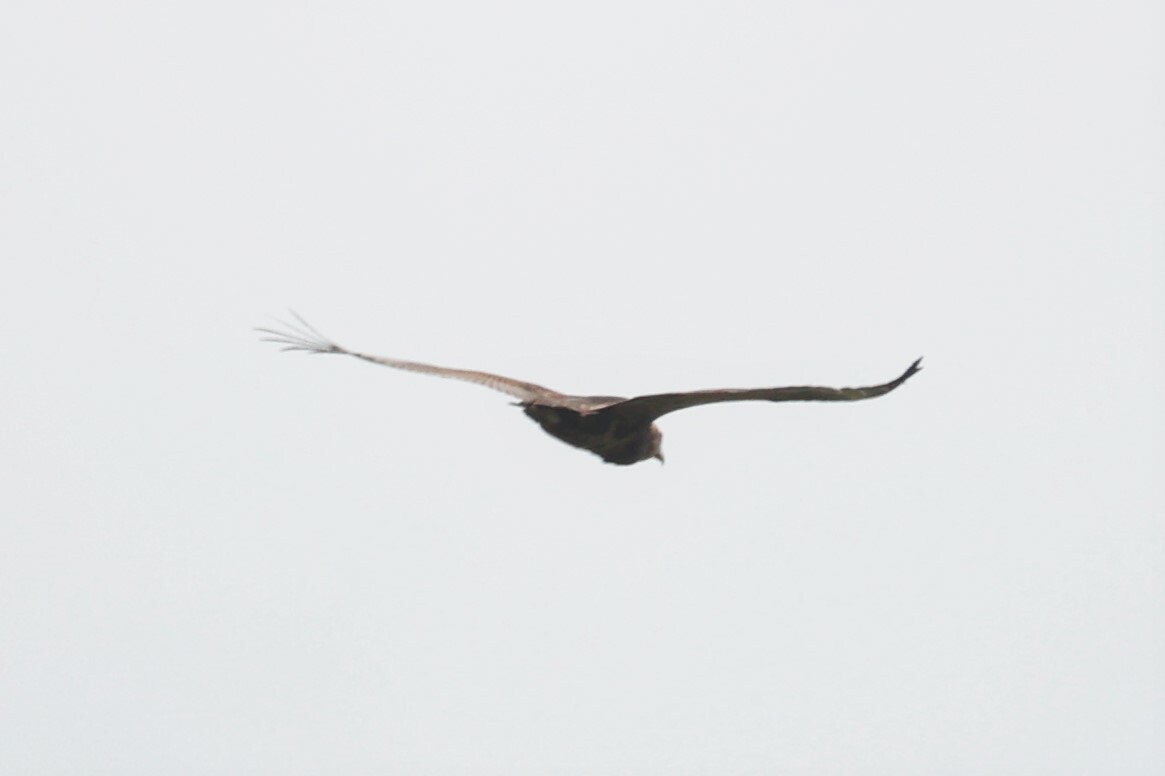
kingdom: Animalia
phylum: Chordata
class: Aves
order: Accipitriformes
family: Accipitridae
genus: Terathopius
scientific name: Terathopius ecaudatus
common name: Bateleur
